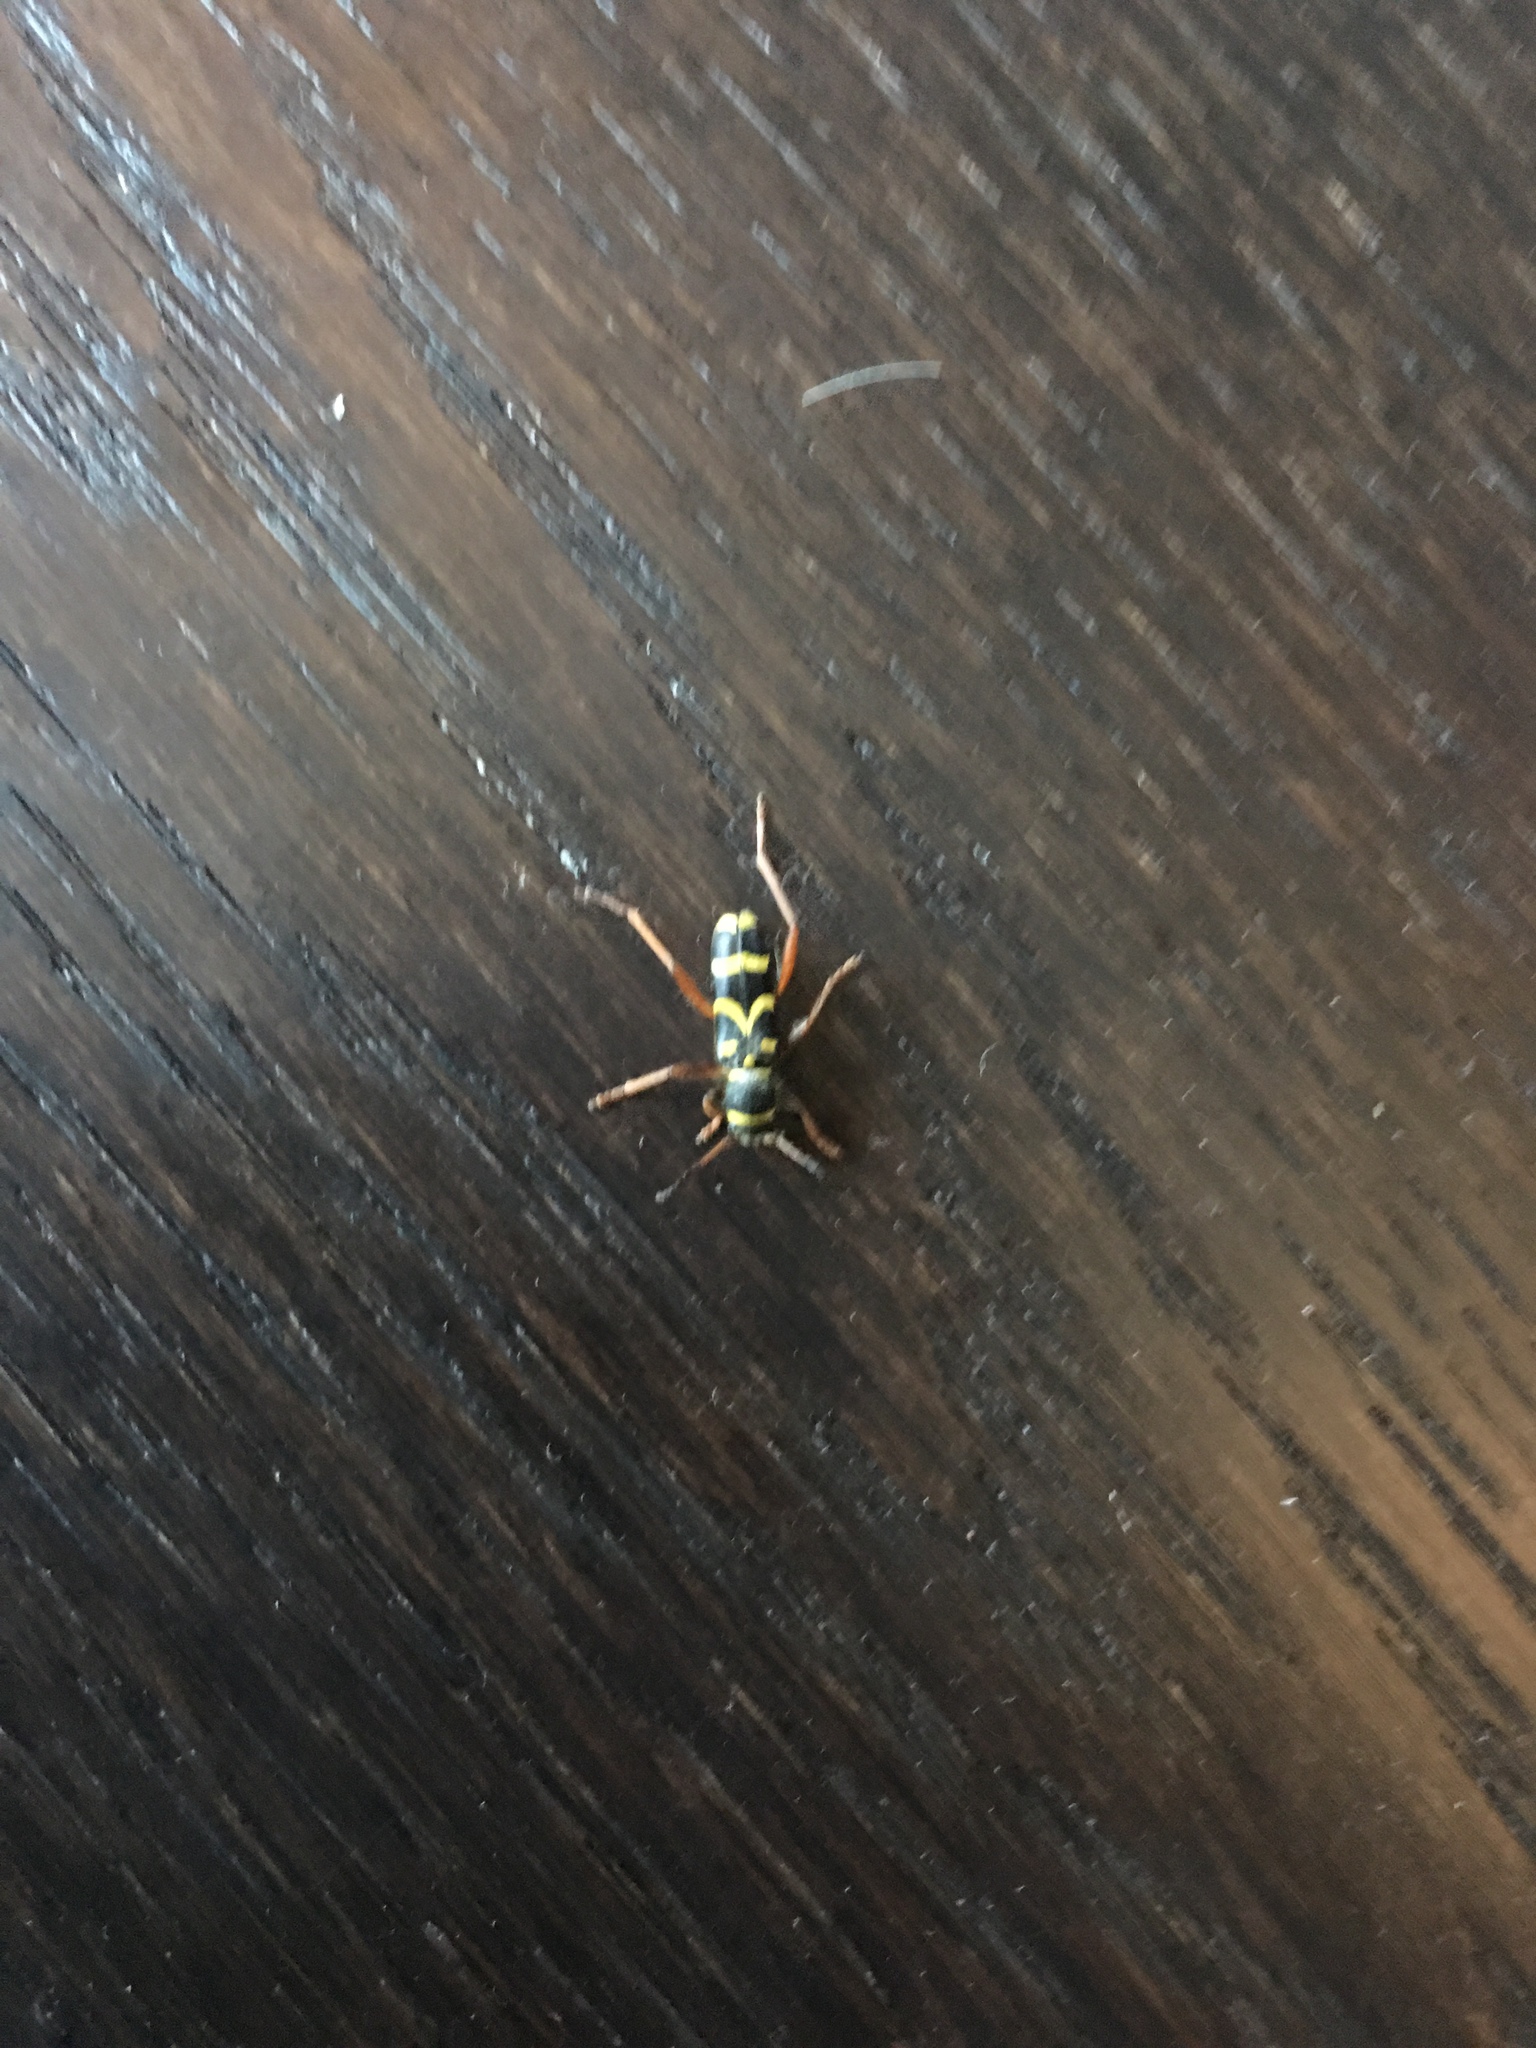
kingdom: Animalia
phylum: Arthropoda
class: Insecta
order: Coleoptera
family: Cerambycidae
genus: Clytus
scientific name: Clytus arietis
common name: Wasp beetle
